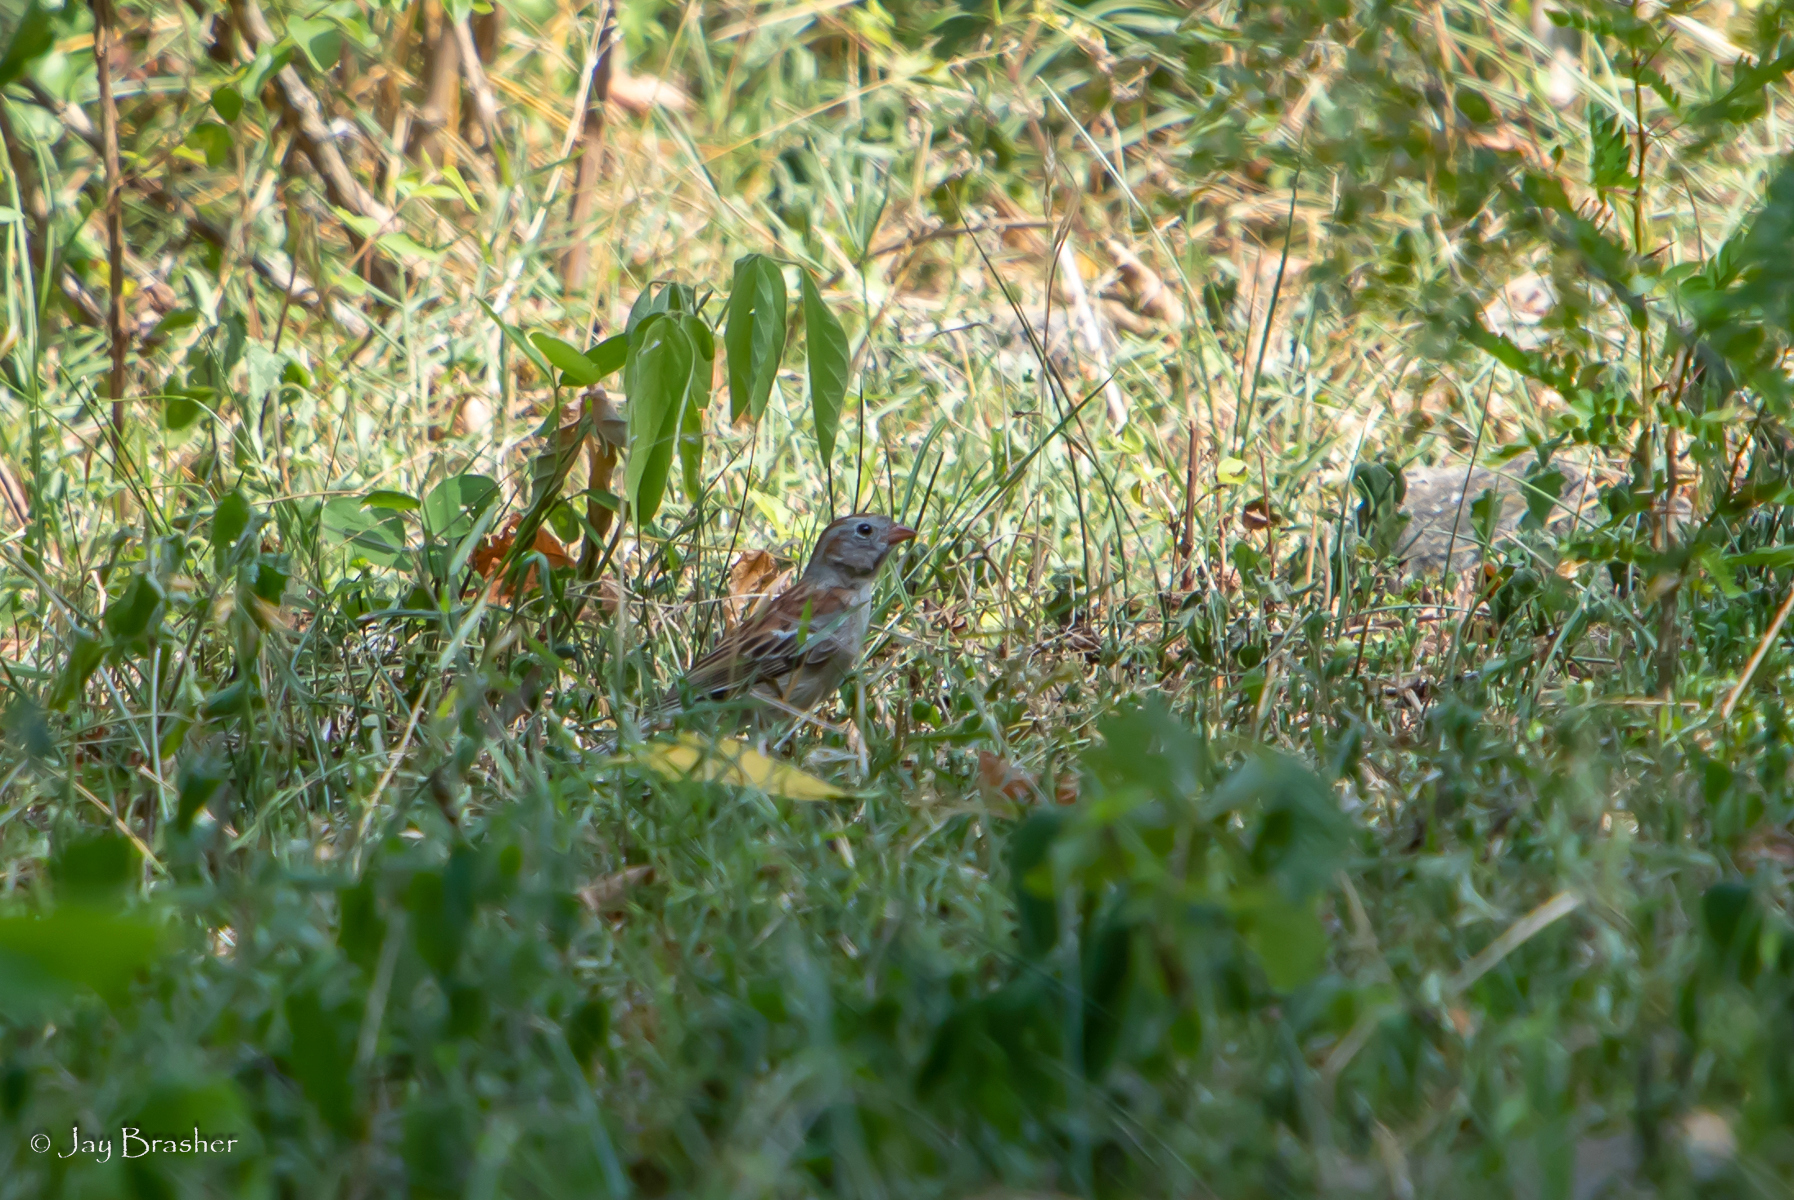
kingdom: Animalia
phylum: Chordata
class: Aves
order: Passeriformes
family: Passerellidae
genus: Spizella
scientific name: Spizella pusilla
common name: Field sparrow
